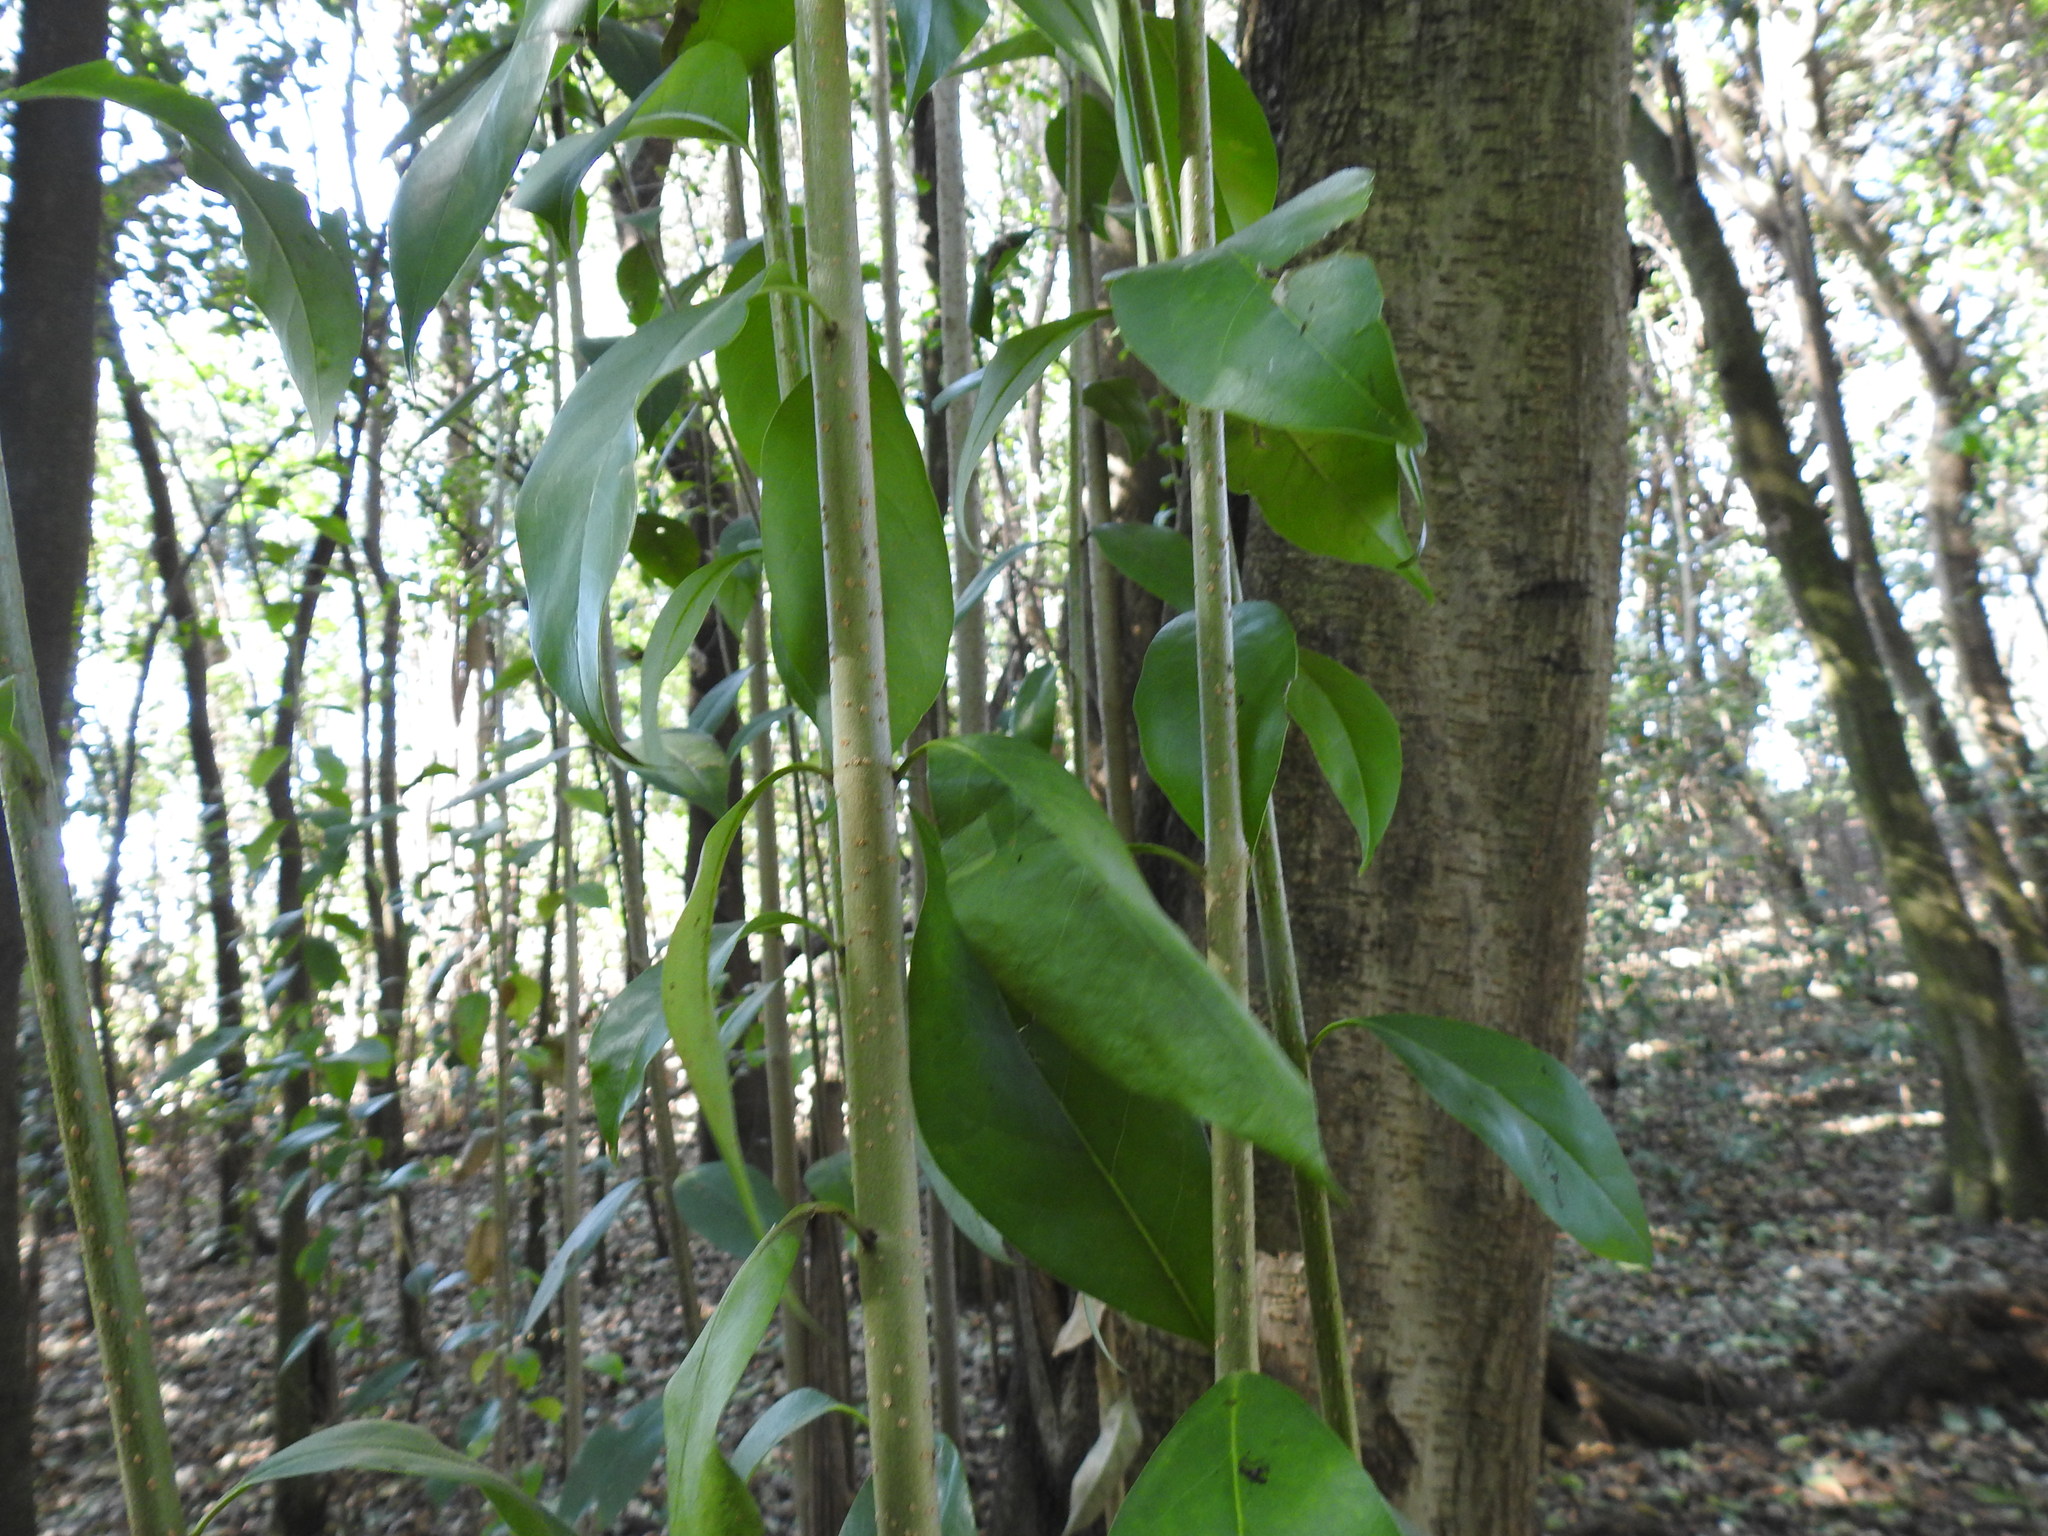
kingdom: Plantae
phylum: Tracheophyta
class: Magnoliopsida
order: Lamiales
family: Oleaceae
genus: Ligustrum
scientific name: Ligustrum lucidum
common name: Glossy privet
